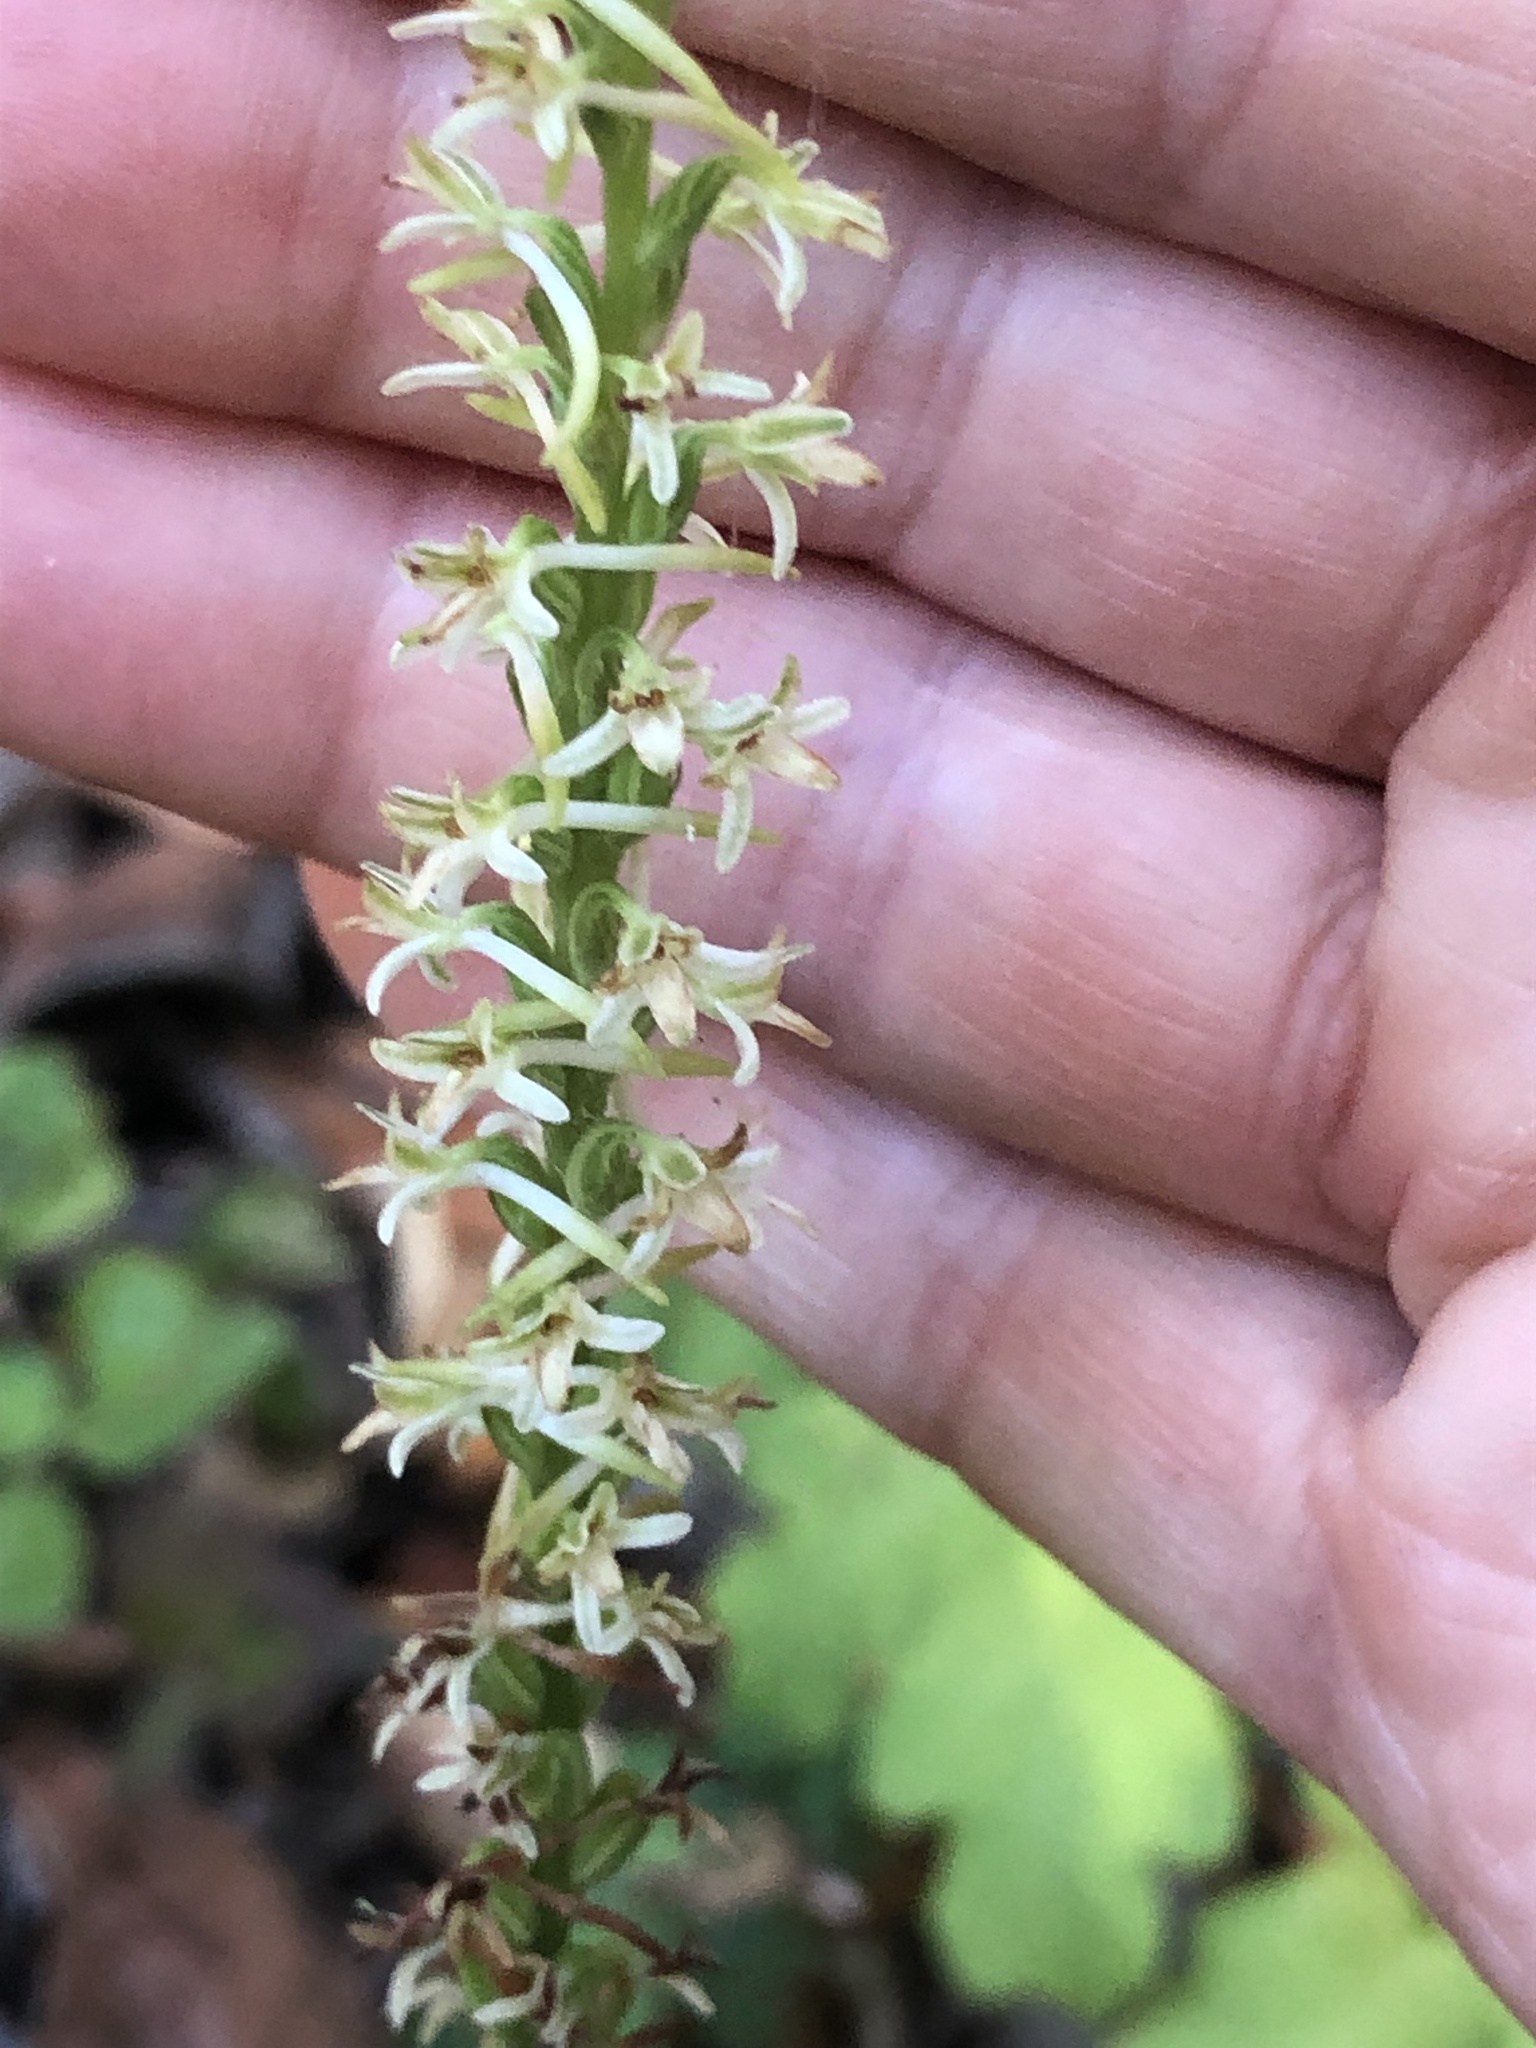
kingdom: Plantae
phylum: Tracheophyta
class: Liliopsida
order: Asparagales
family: Orchidaceae
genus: Platanthera
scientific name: Platanthera transversa
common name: Royal rein orchid
